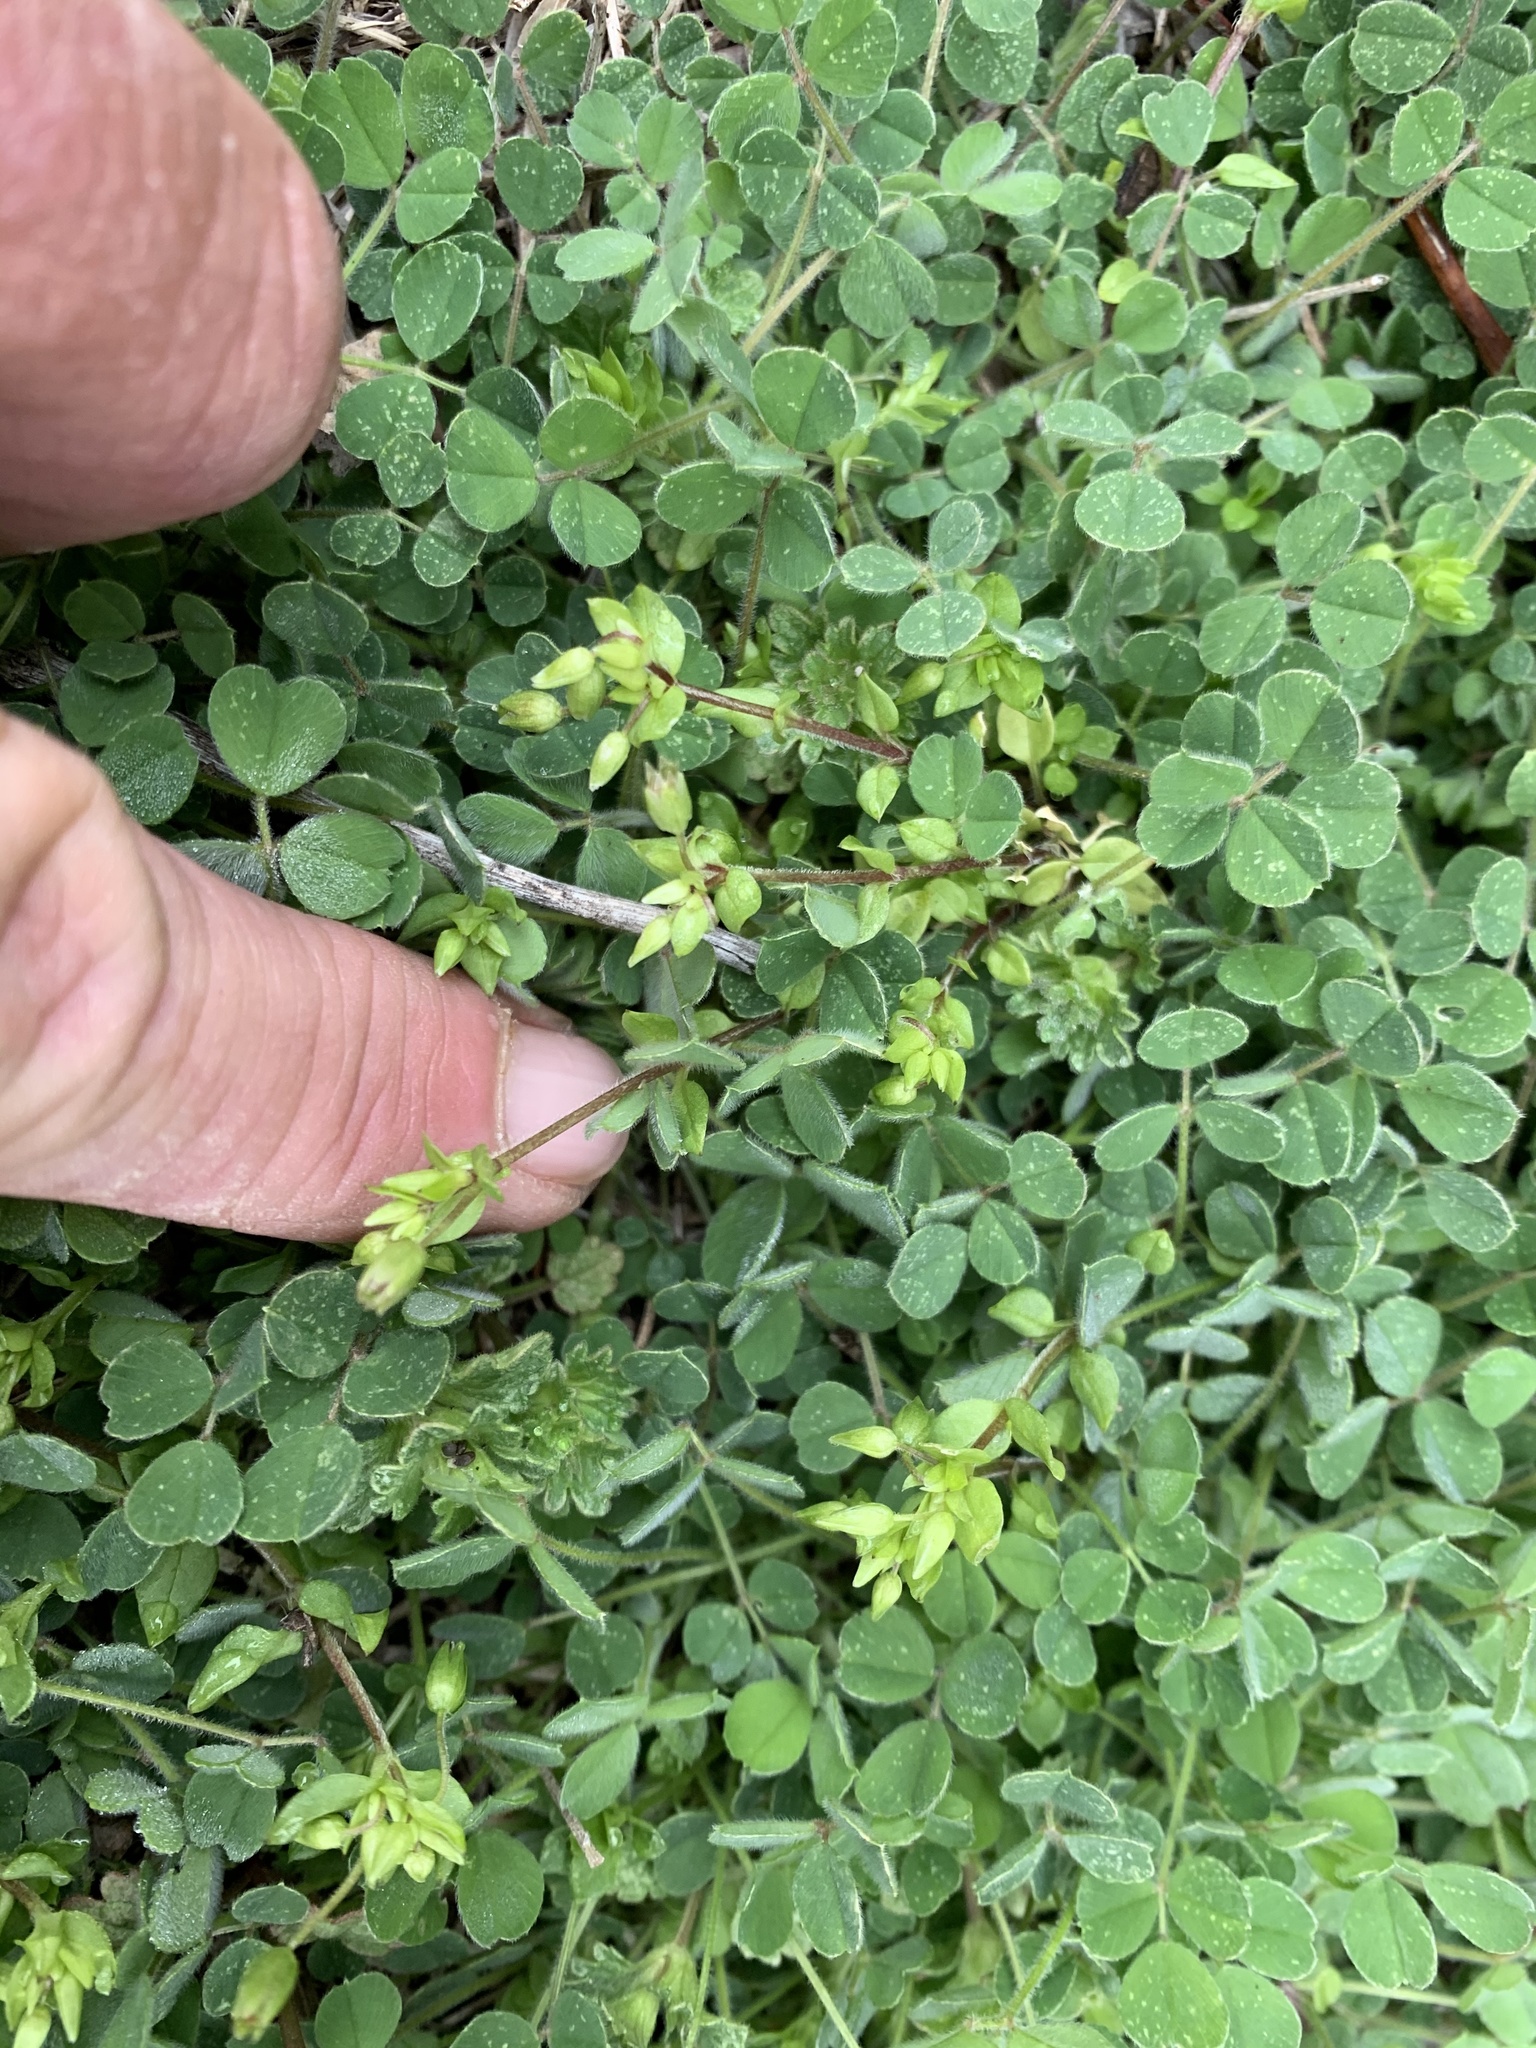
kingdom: Plantae
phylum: Tracheophyta
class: Magnoliopsida
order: Fabales
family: Fabaceae
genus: Medicago
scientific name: Medicago lupulina
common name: Black medick
